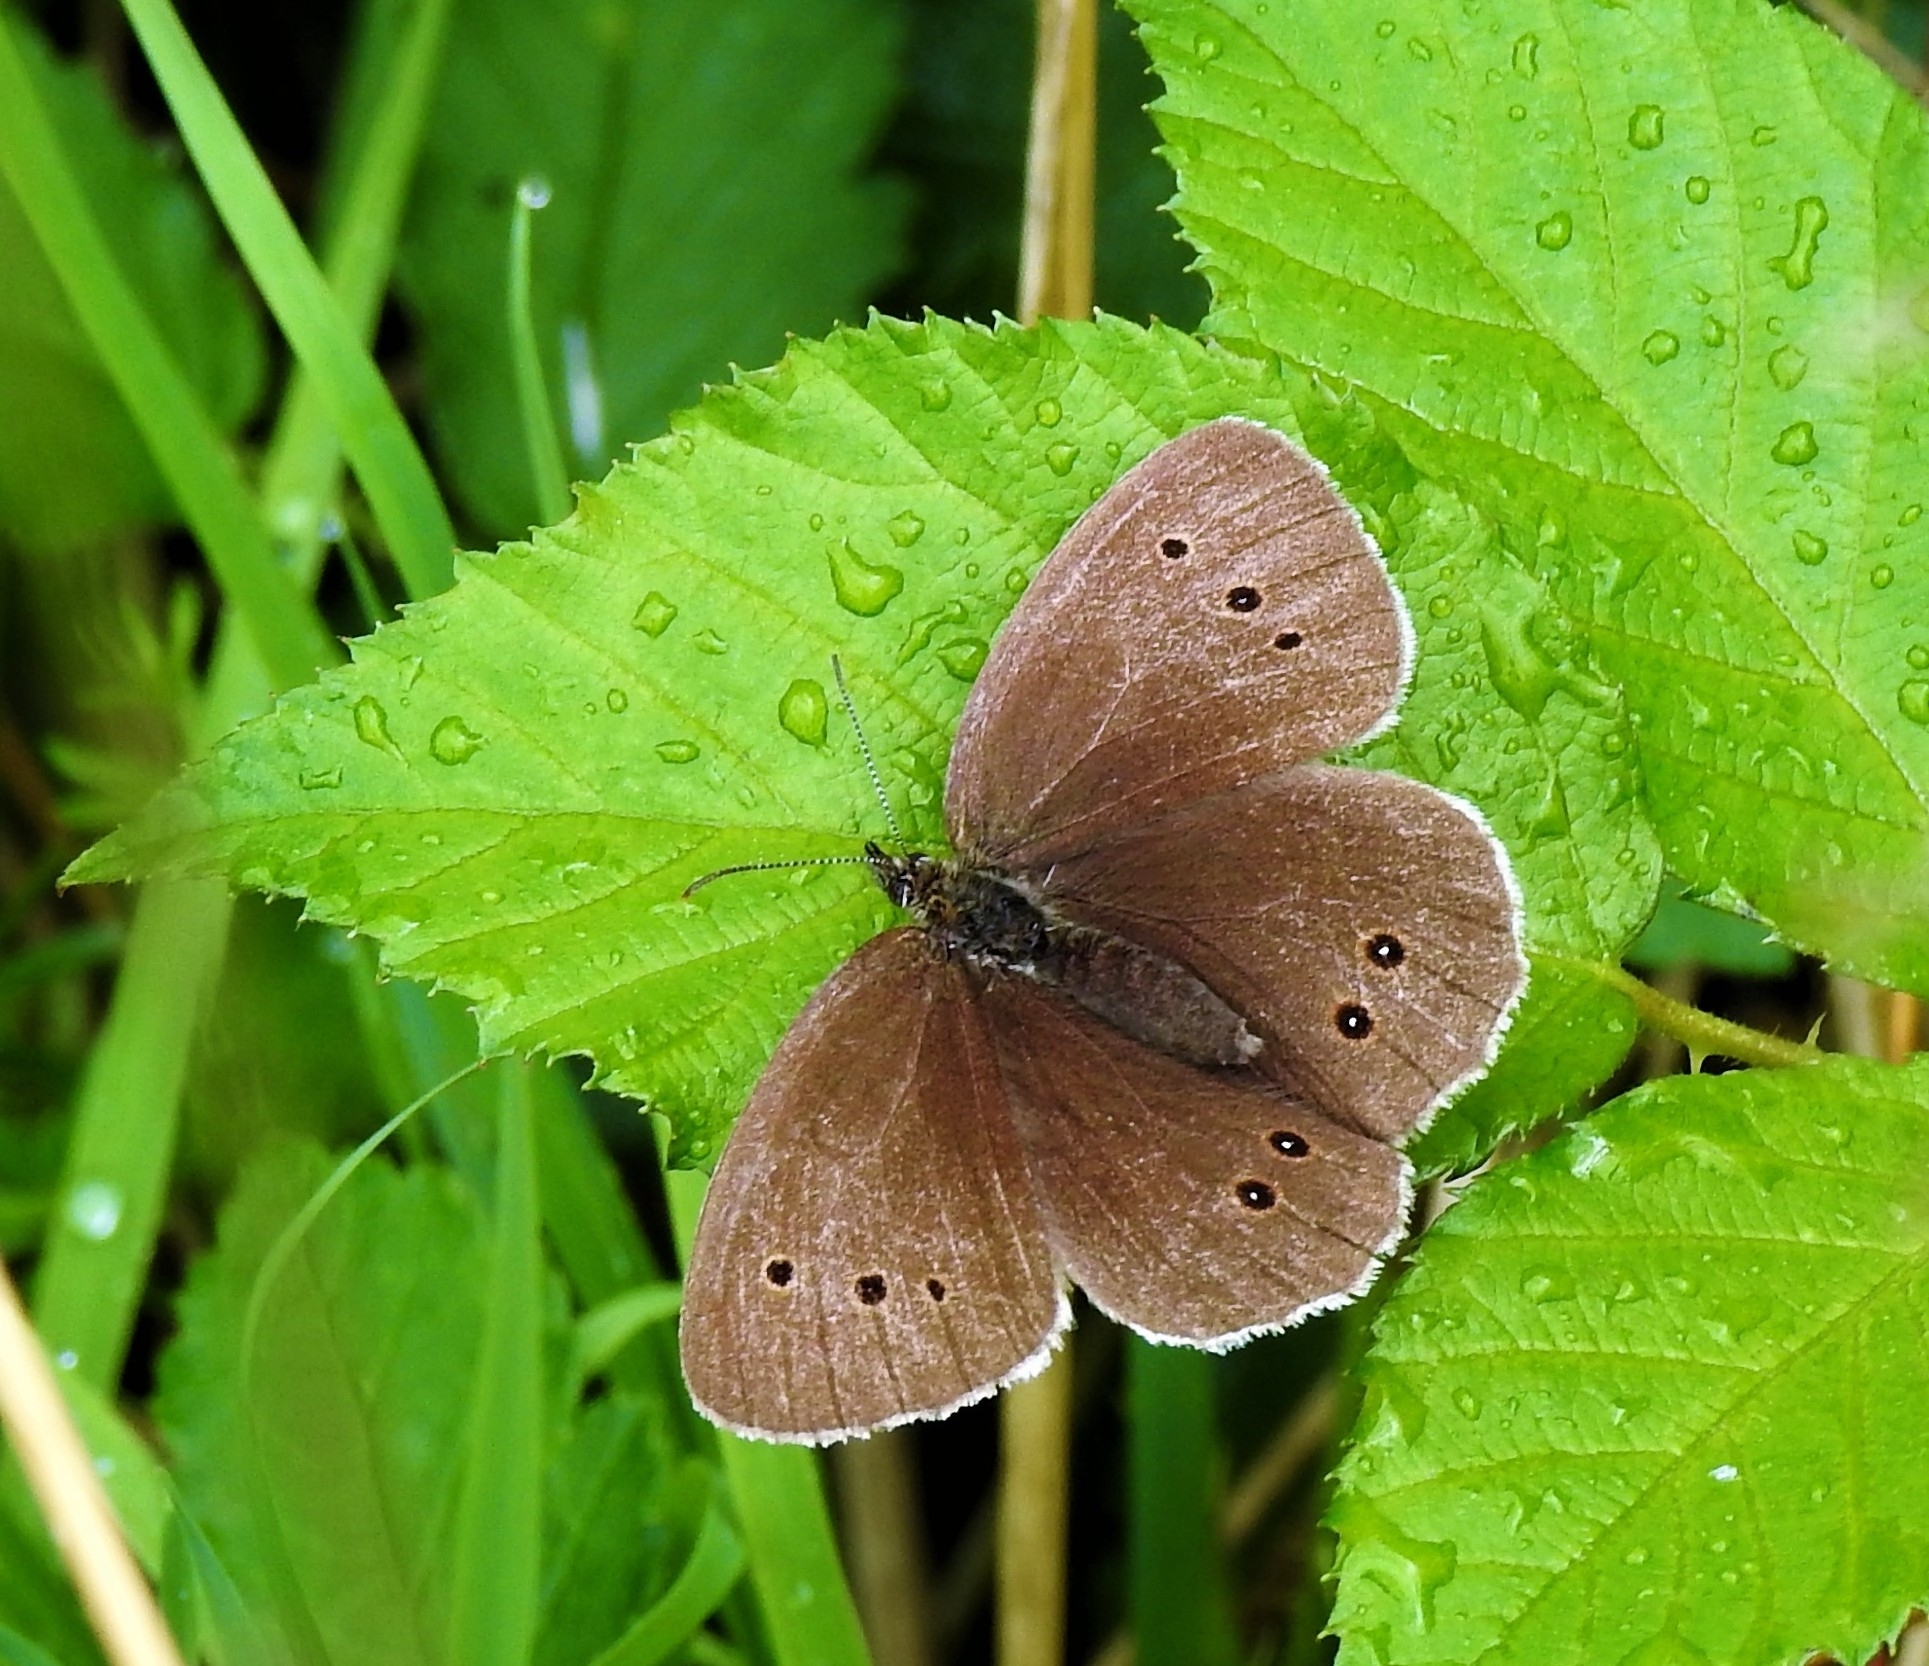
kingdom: Animalia
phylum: Arthropoda
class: Insecta
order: Lepidoptera
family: Nymphalidae
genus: Aphantopus
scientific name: Aphantopus hyperantus
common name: Ringlet
